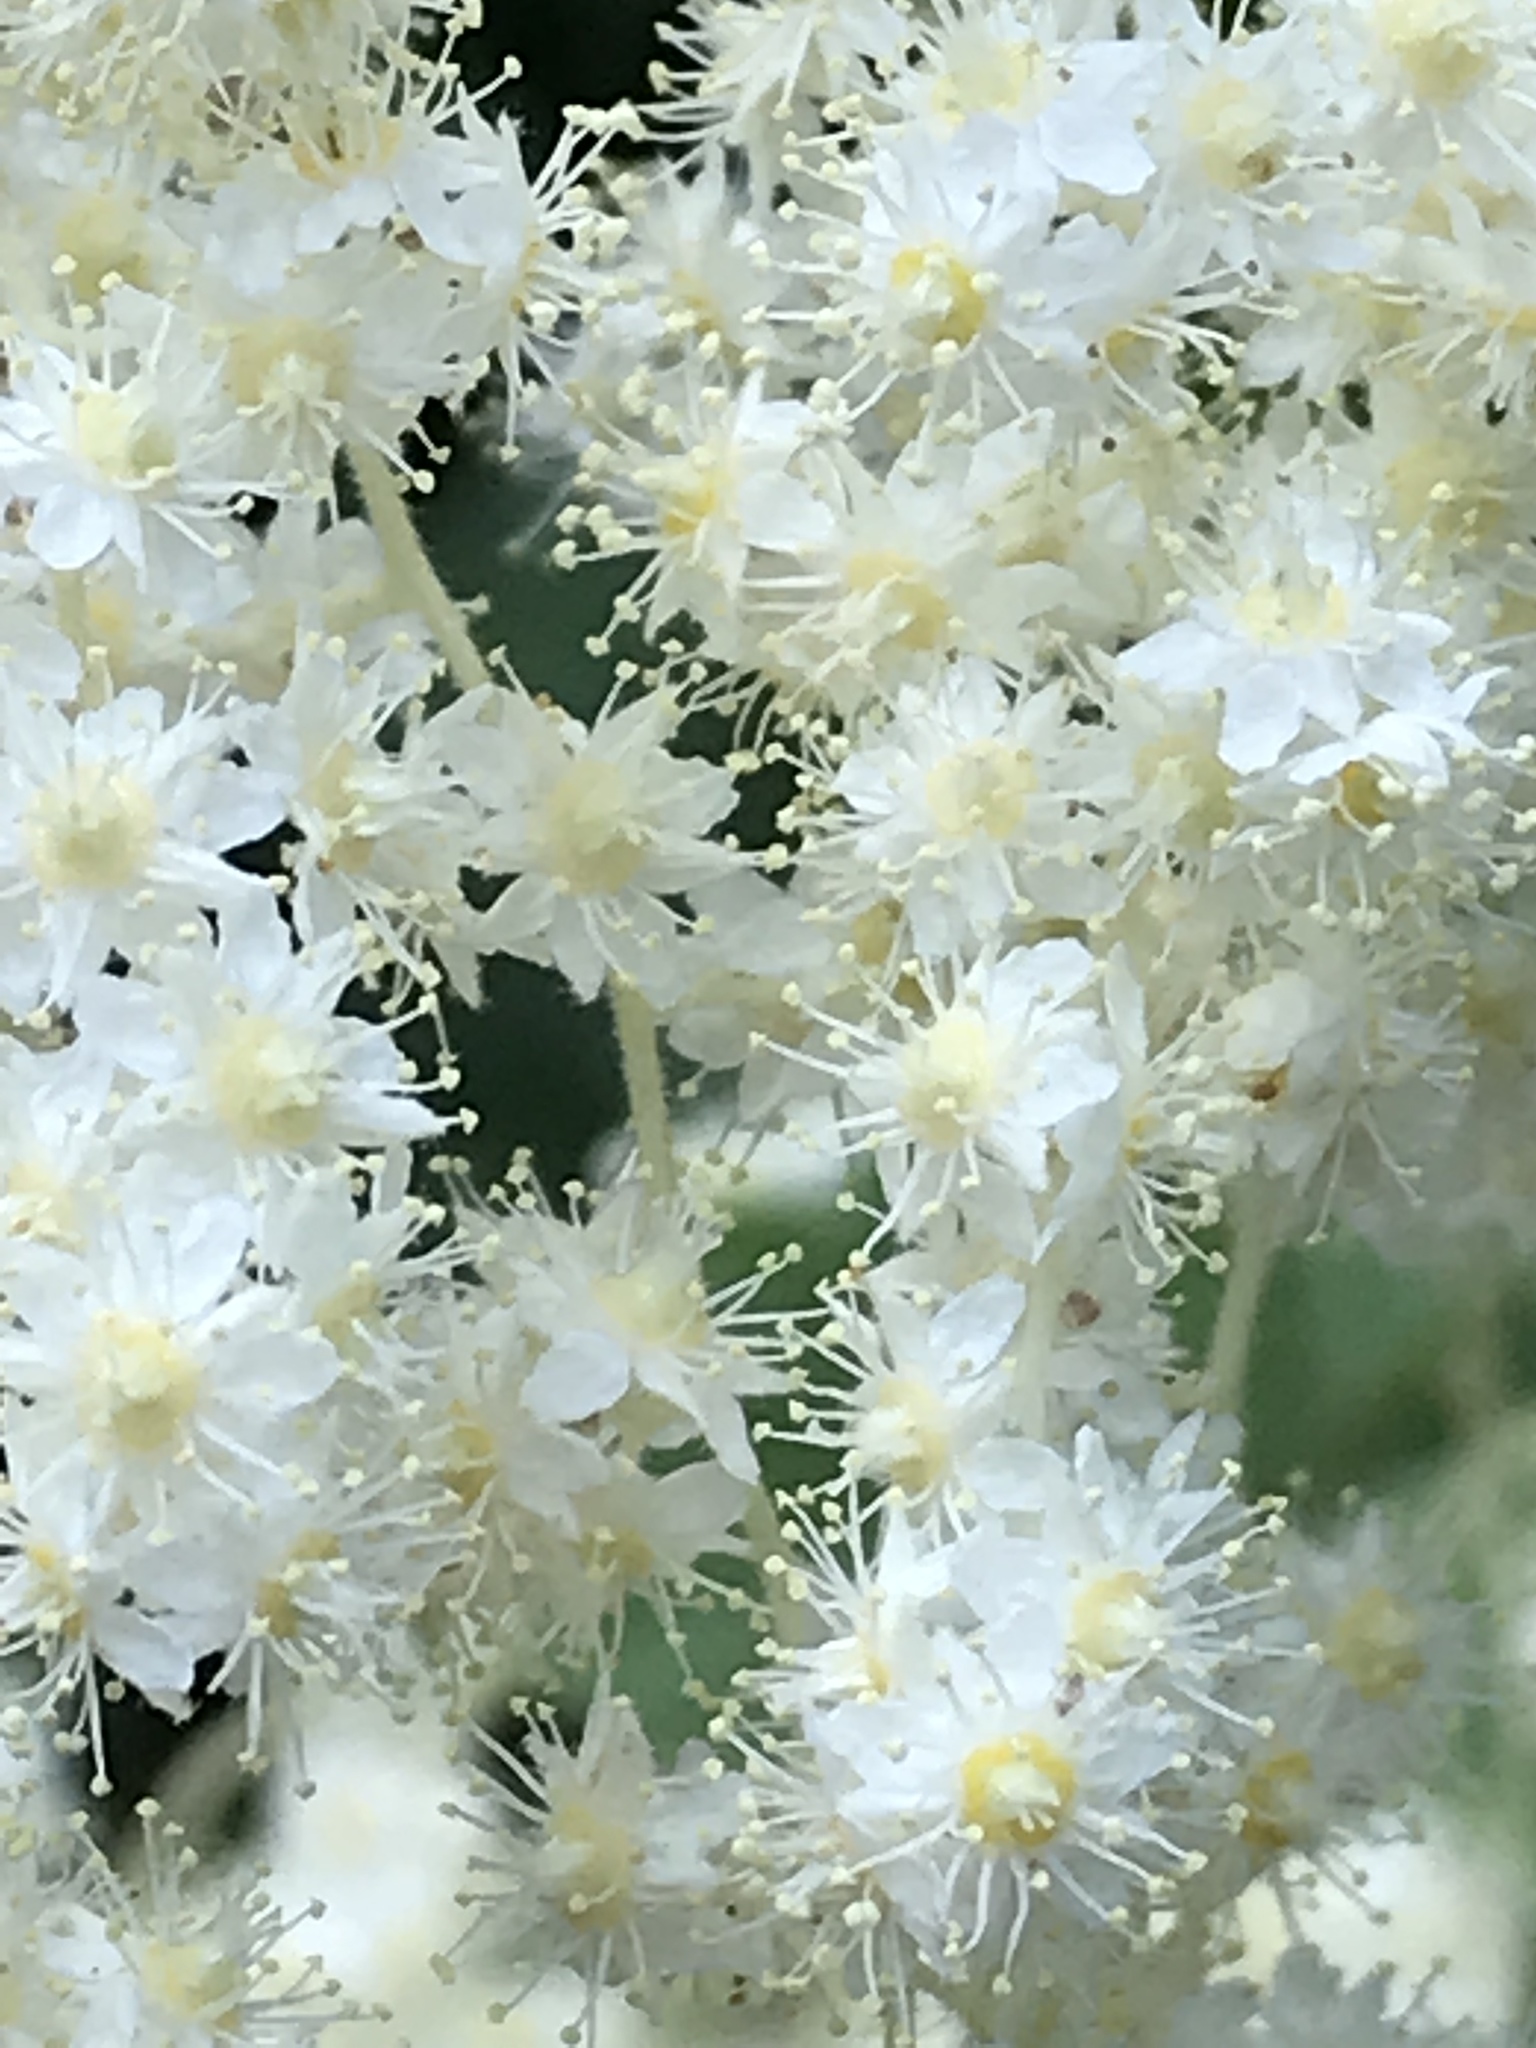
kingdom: Plantae
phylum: Tracheophyta
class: Magnoliopsida
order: Rosales
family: Rosaceae
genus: Holodiscus
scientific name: Holodiscus discolor
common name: Oceanspray
